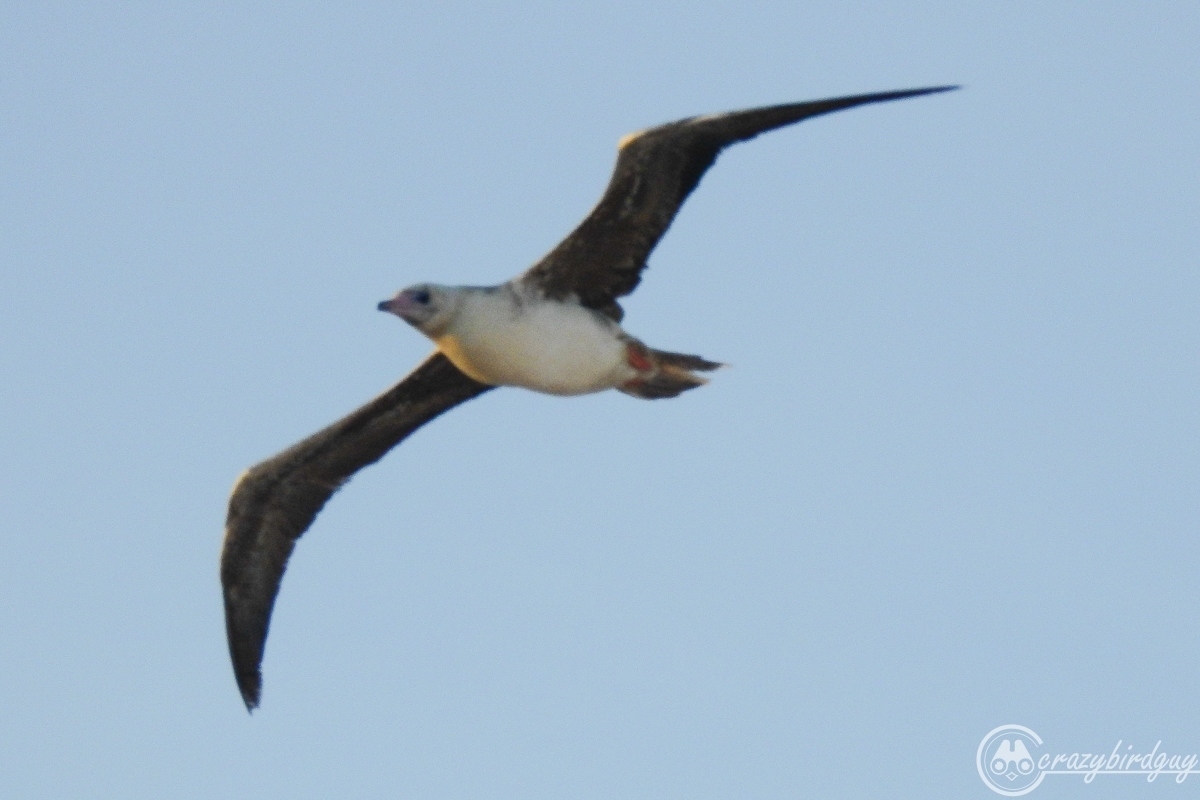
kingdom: Animalia
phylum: Chordata
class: Aves
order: Suliformes
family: Sulidae
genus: Sula
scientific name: Sula sula
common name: Red-footed booby
